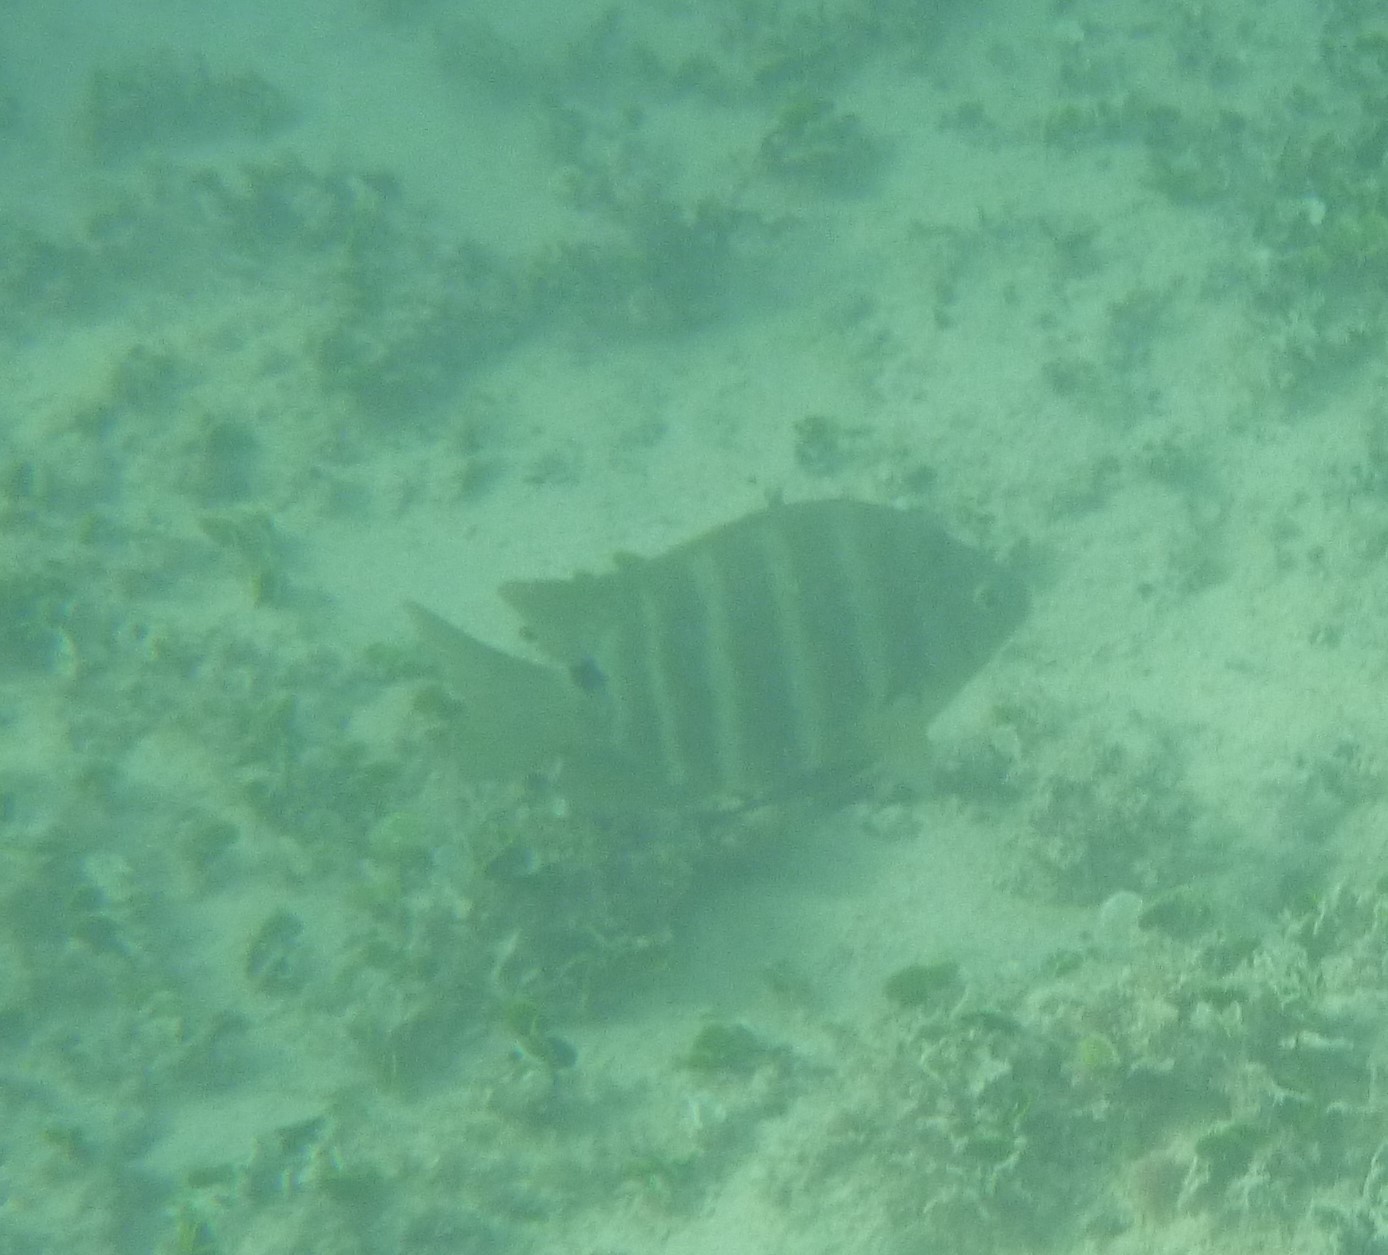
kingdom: Animalia
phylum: Chordata
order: Perciformes
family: Pomacentridae
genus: Abudefduf
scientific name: Abudefduf sordidus
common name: Blackspot sergeant
